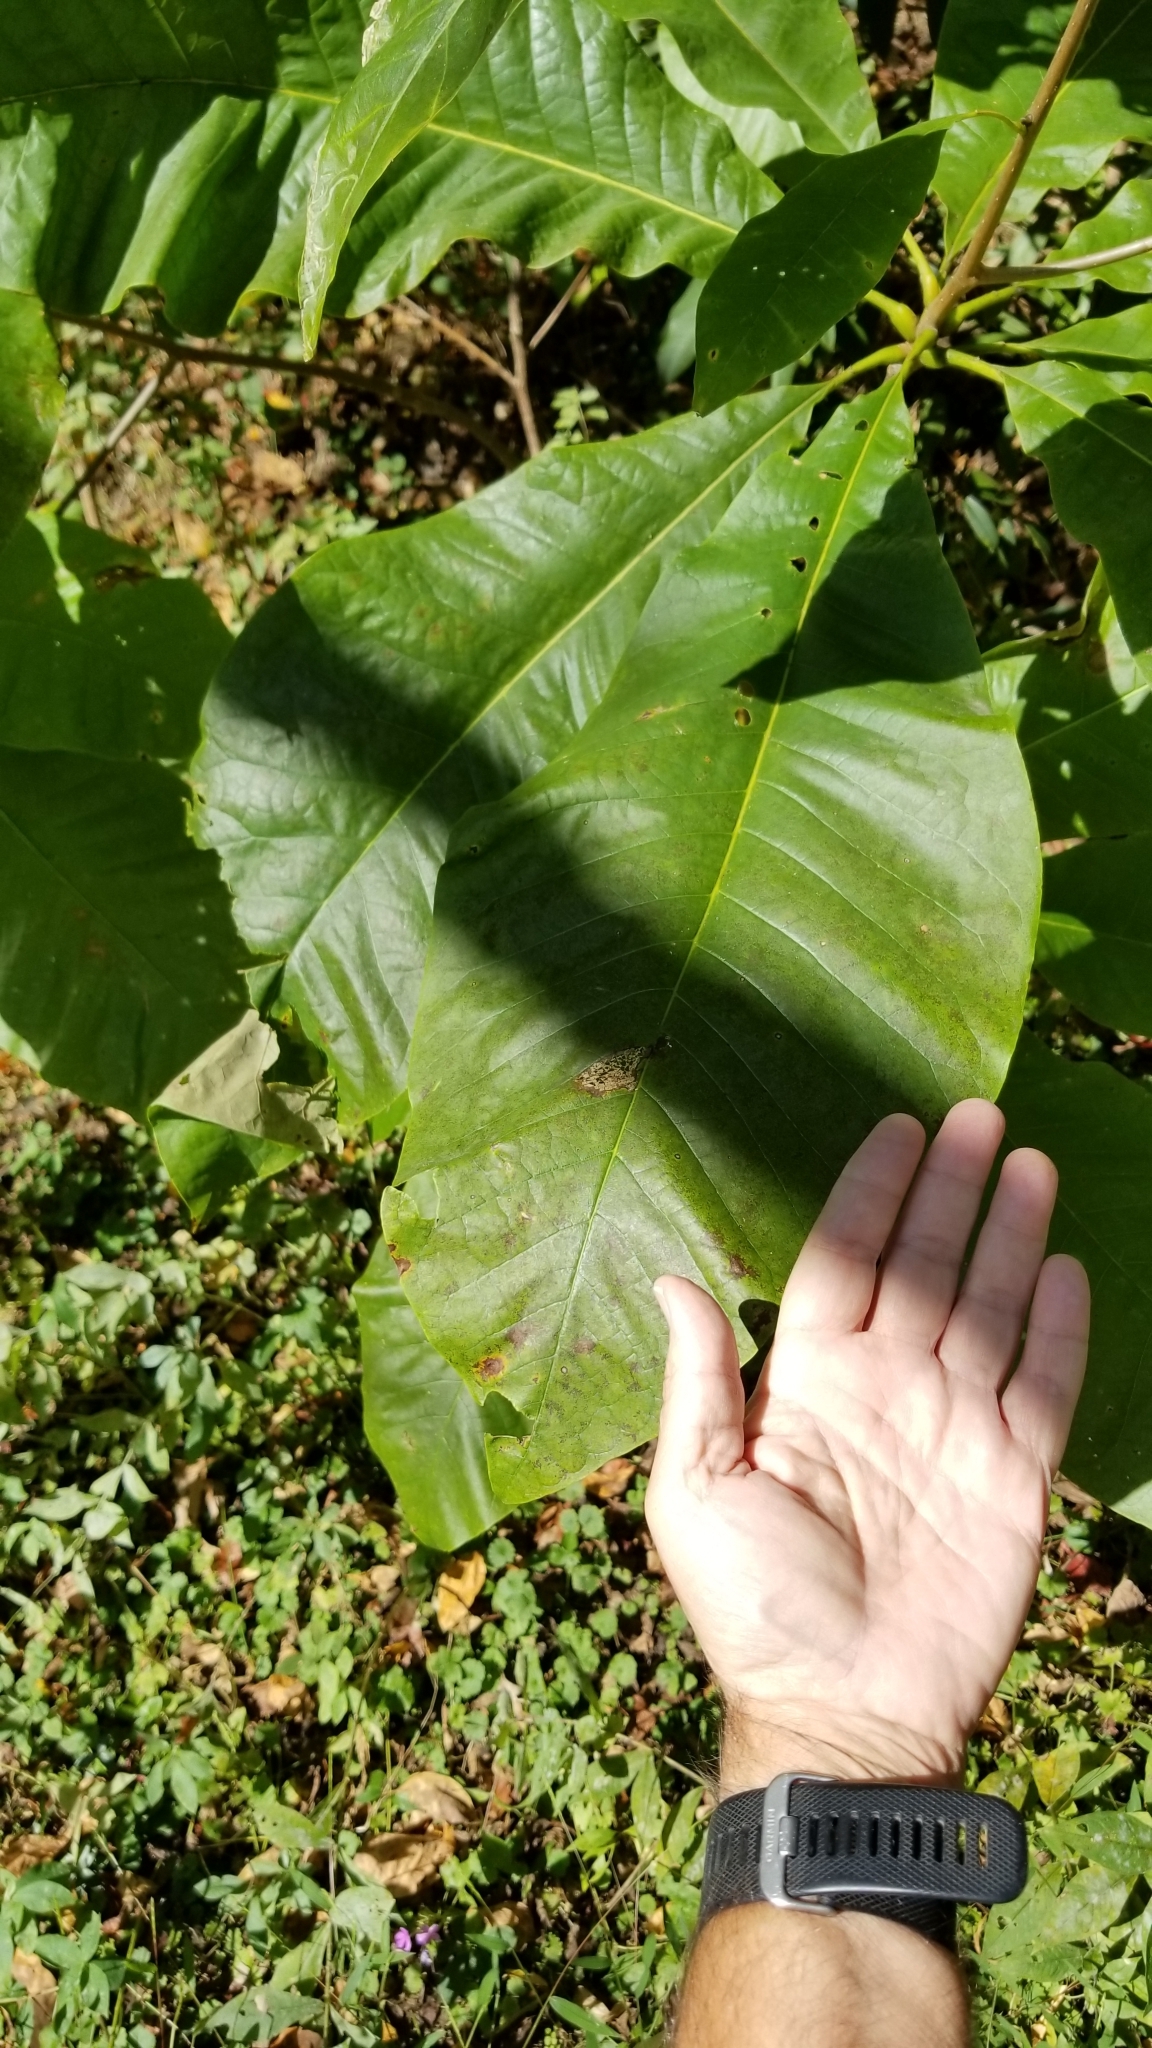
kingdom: Plantae
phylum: Tracheophyta
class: Magnoliopsida
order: Magnoliales
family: Magnoliaceae
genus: Magnolia
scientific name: Magnolia tripetala
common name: Umbrella magnolia
